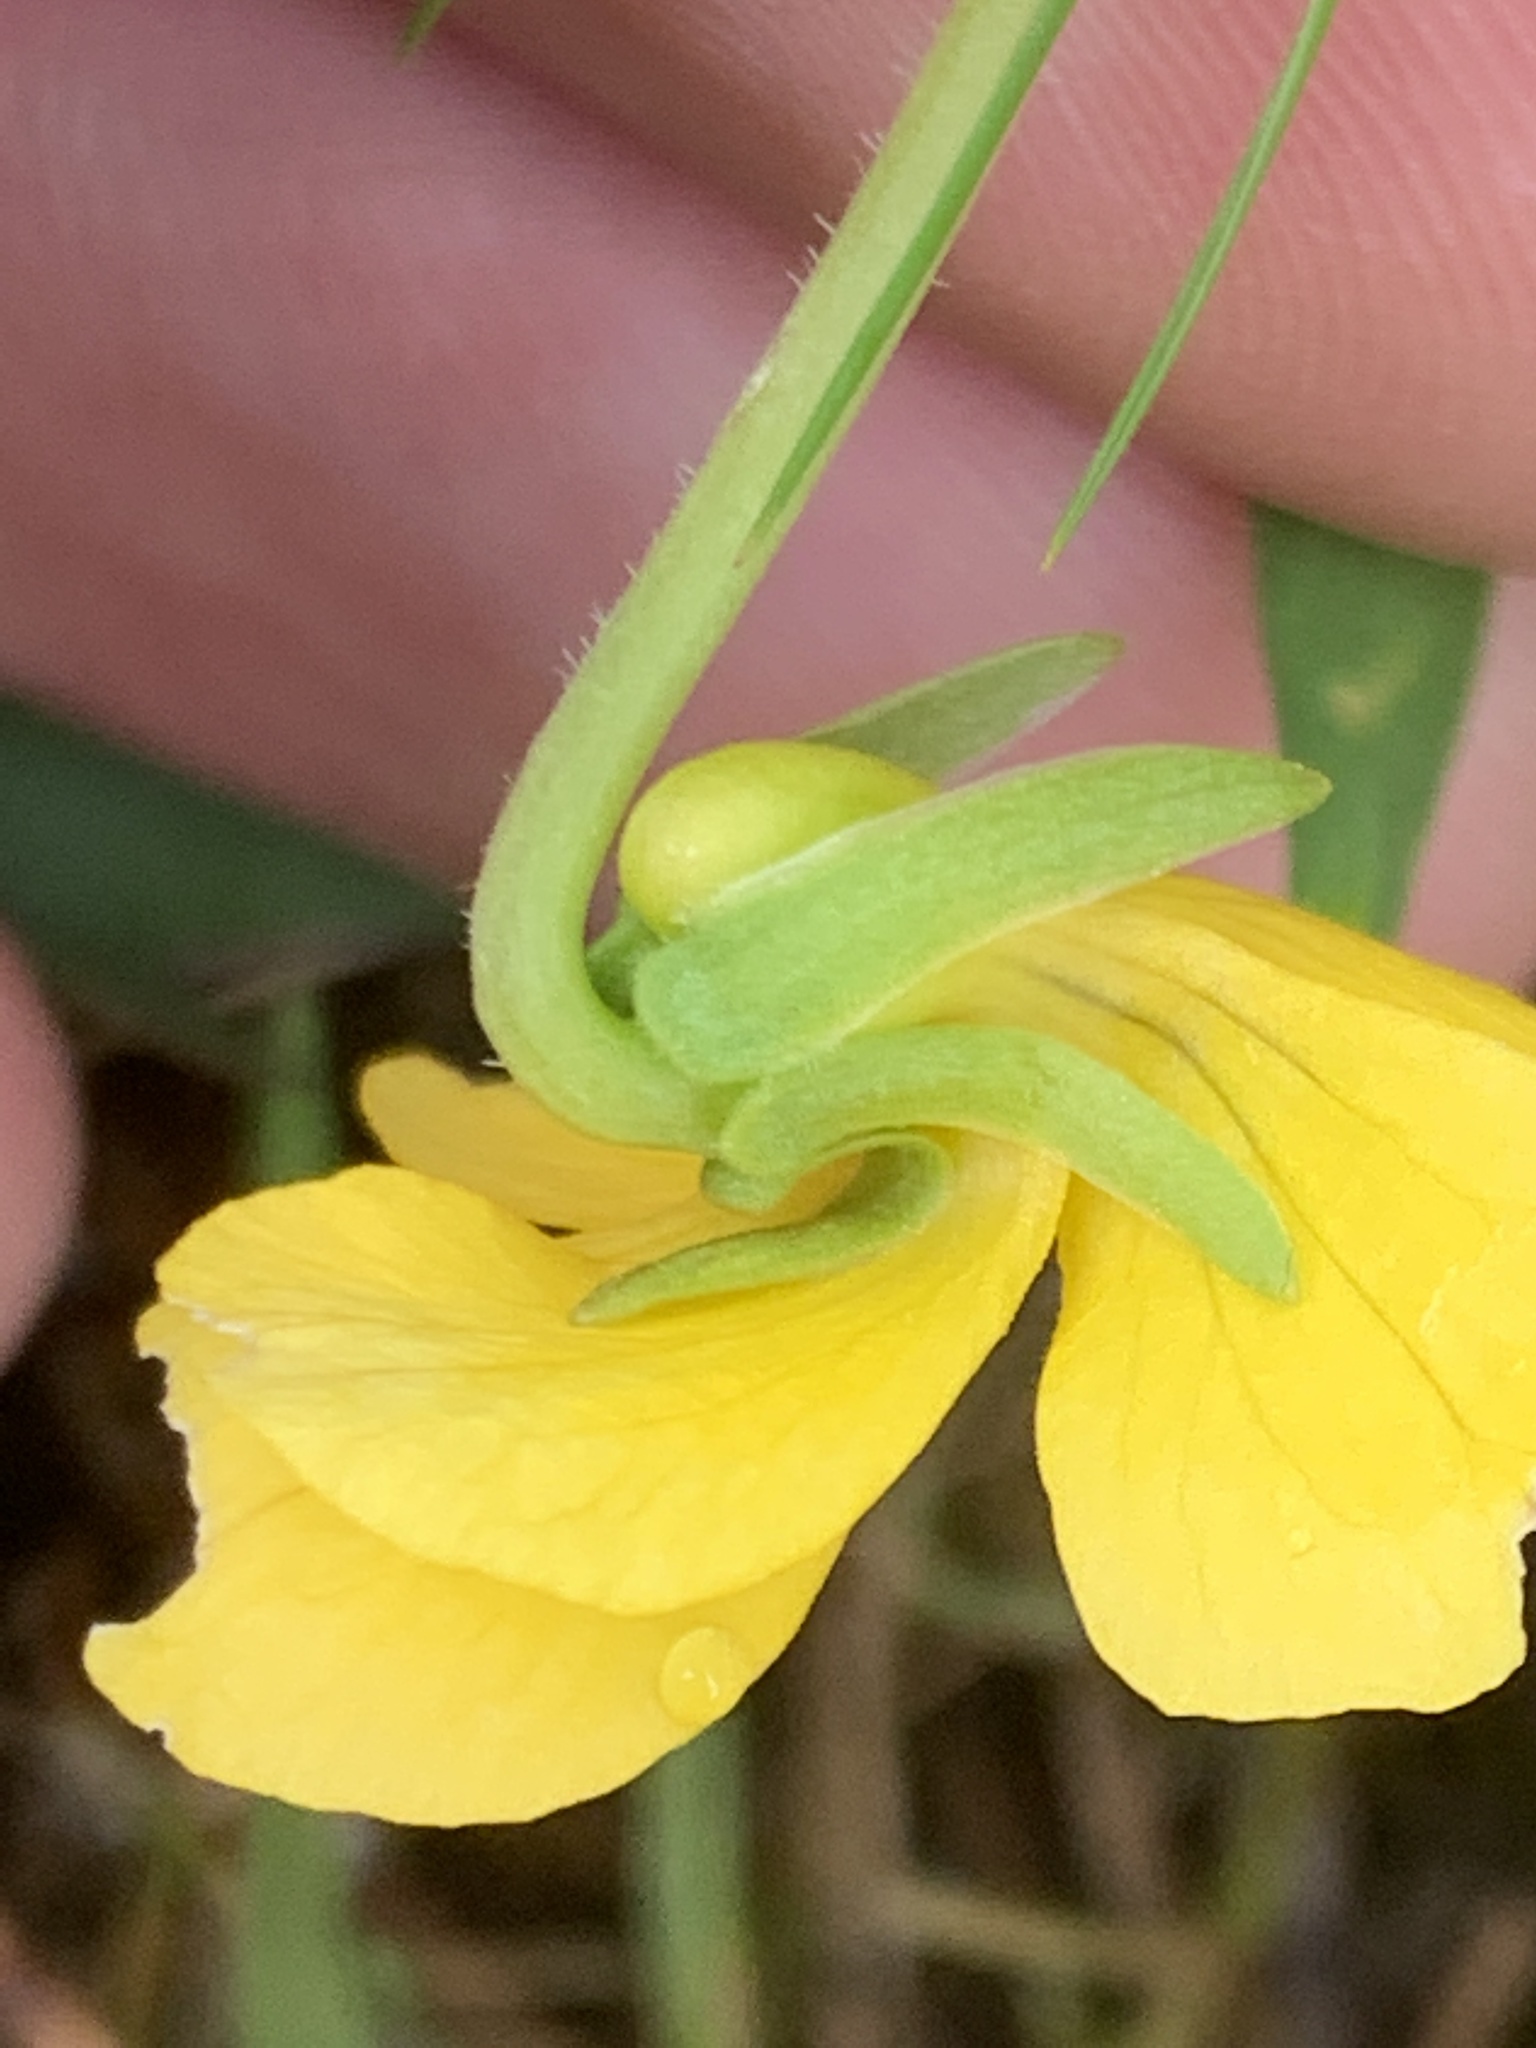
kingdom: Plantae
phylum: Tracheophyta
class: Magnoliopsida
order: Malpighiales
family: Violaceae
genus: Viola
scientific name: Viola praemorsa
